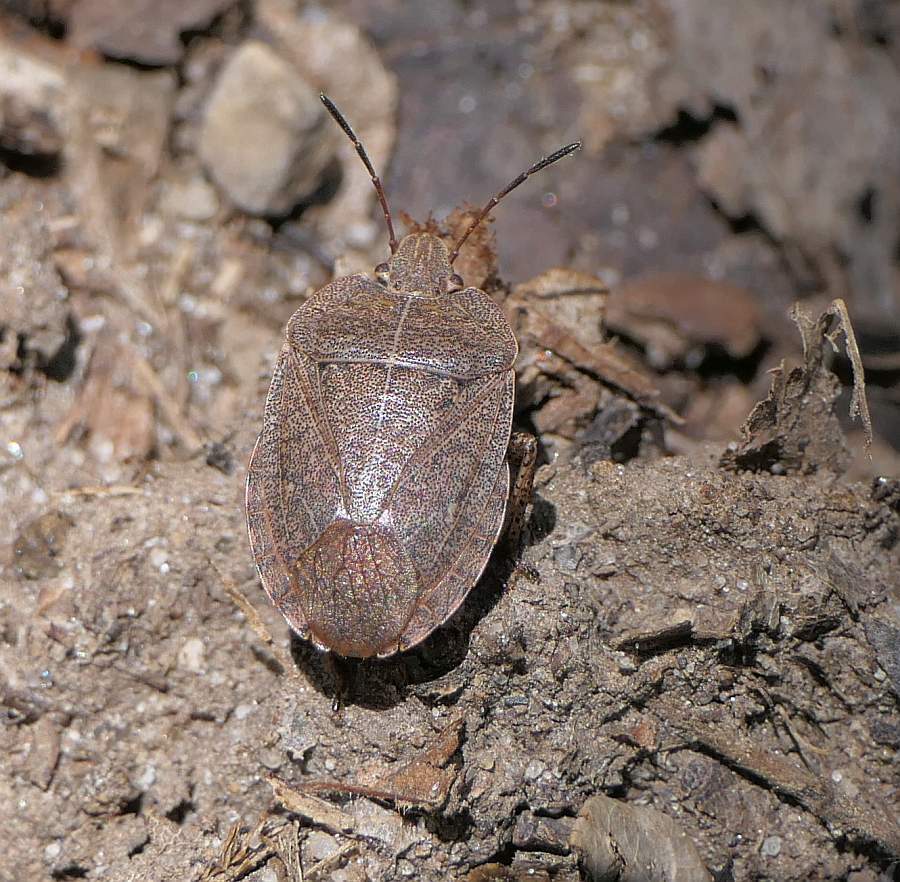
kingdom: Animalia
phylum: Arthropoda
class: Insecta
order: Hemiptera
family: Pentatomidae
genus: Menecles
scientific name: Menecles insertus
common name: Elf shoe stink bug
